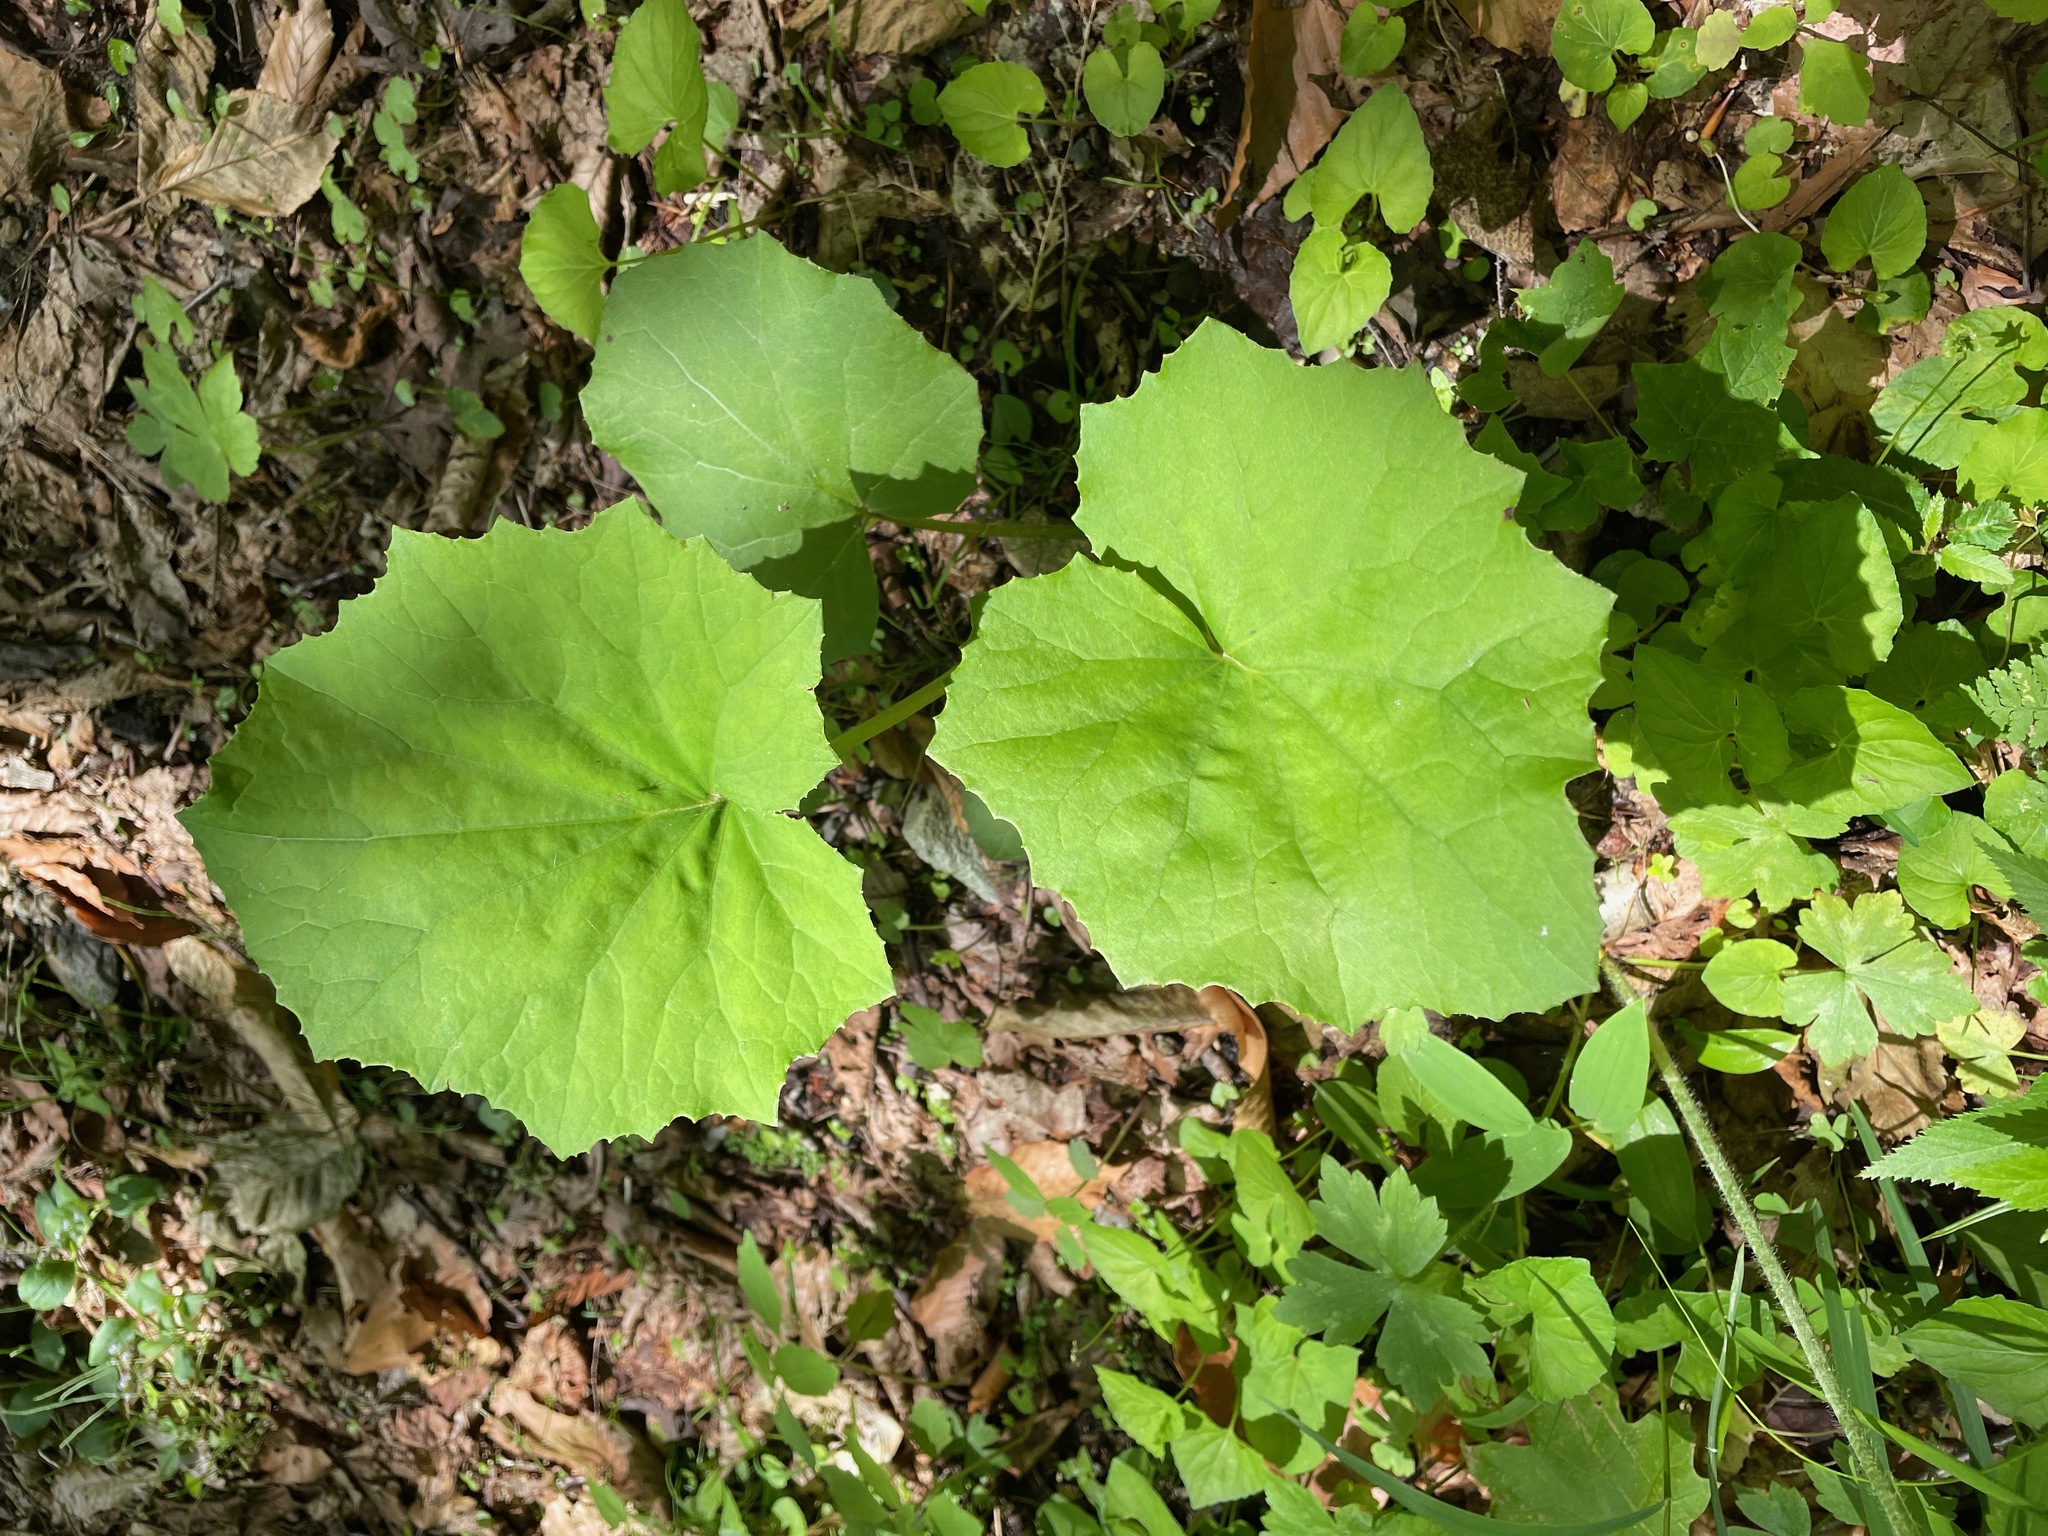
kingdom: Plantae
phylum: Tracheophyta
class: Magnoliopsida
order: Asterales
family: Asteraceae
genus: Tussilago
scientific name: Tussilago farfara
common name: Coltsfoot
